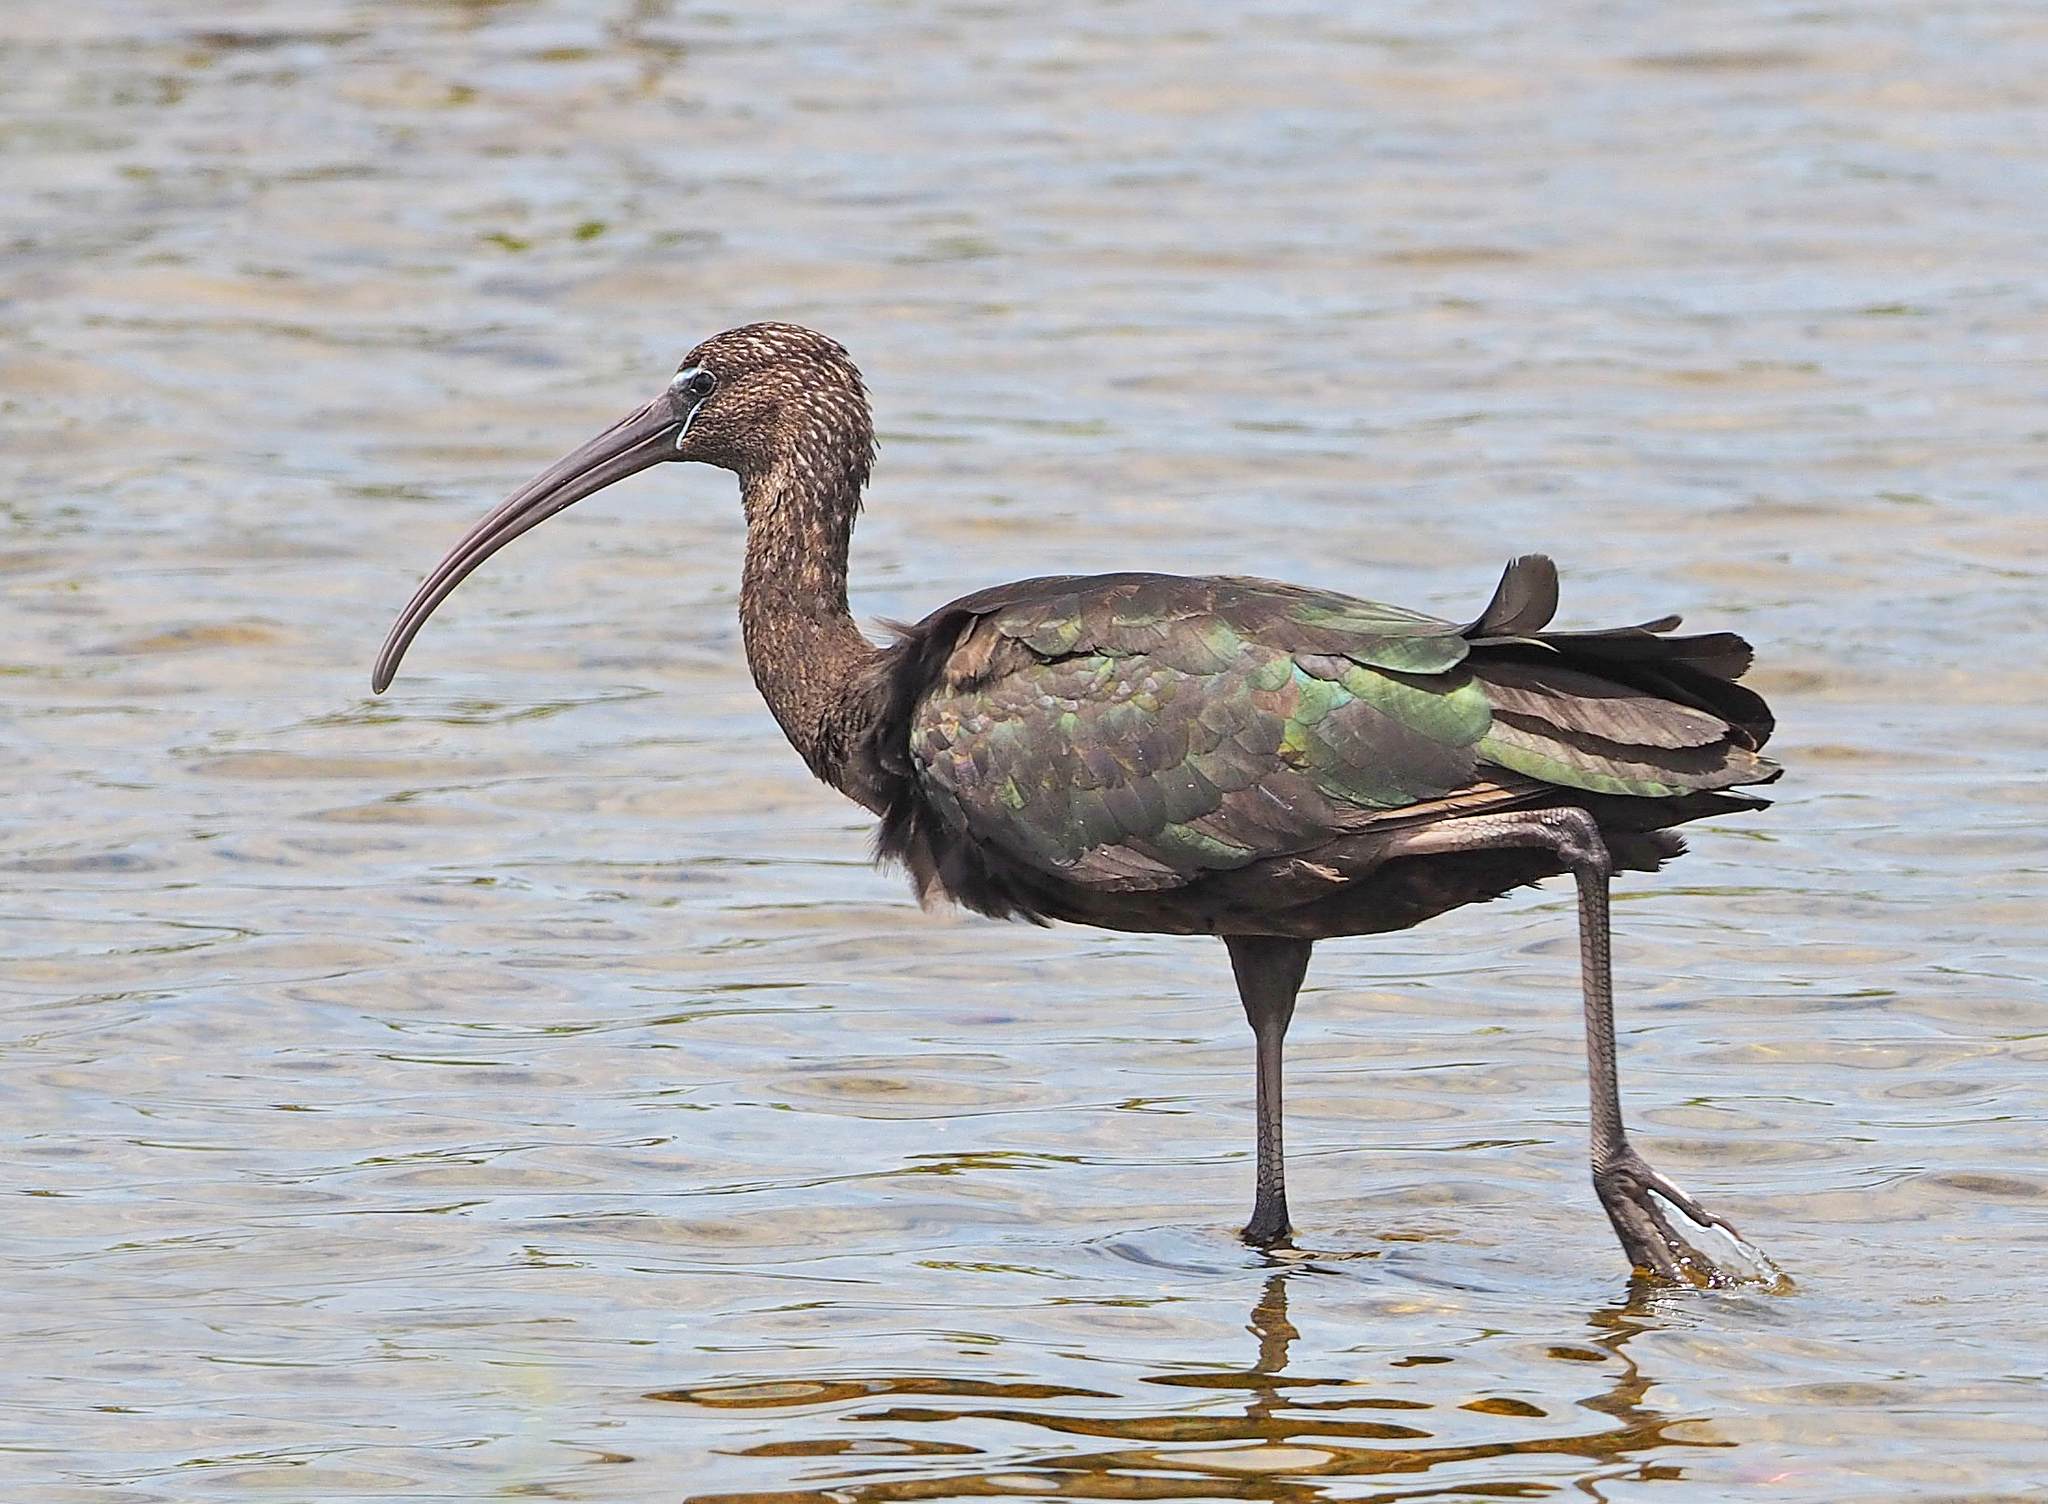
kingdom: Animalia
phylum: Chordata
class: Aves
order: Pelecaniformes
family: Threskiornithidae
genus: Plegadis
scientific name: Plegadis falcinellus
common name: Glossy ibis
